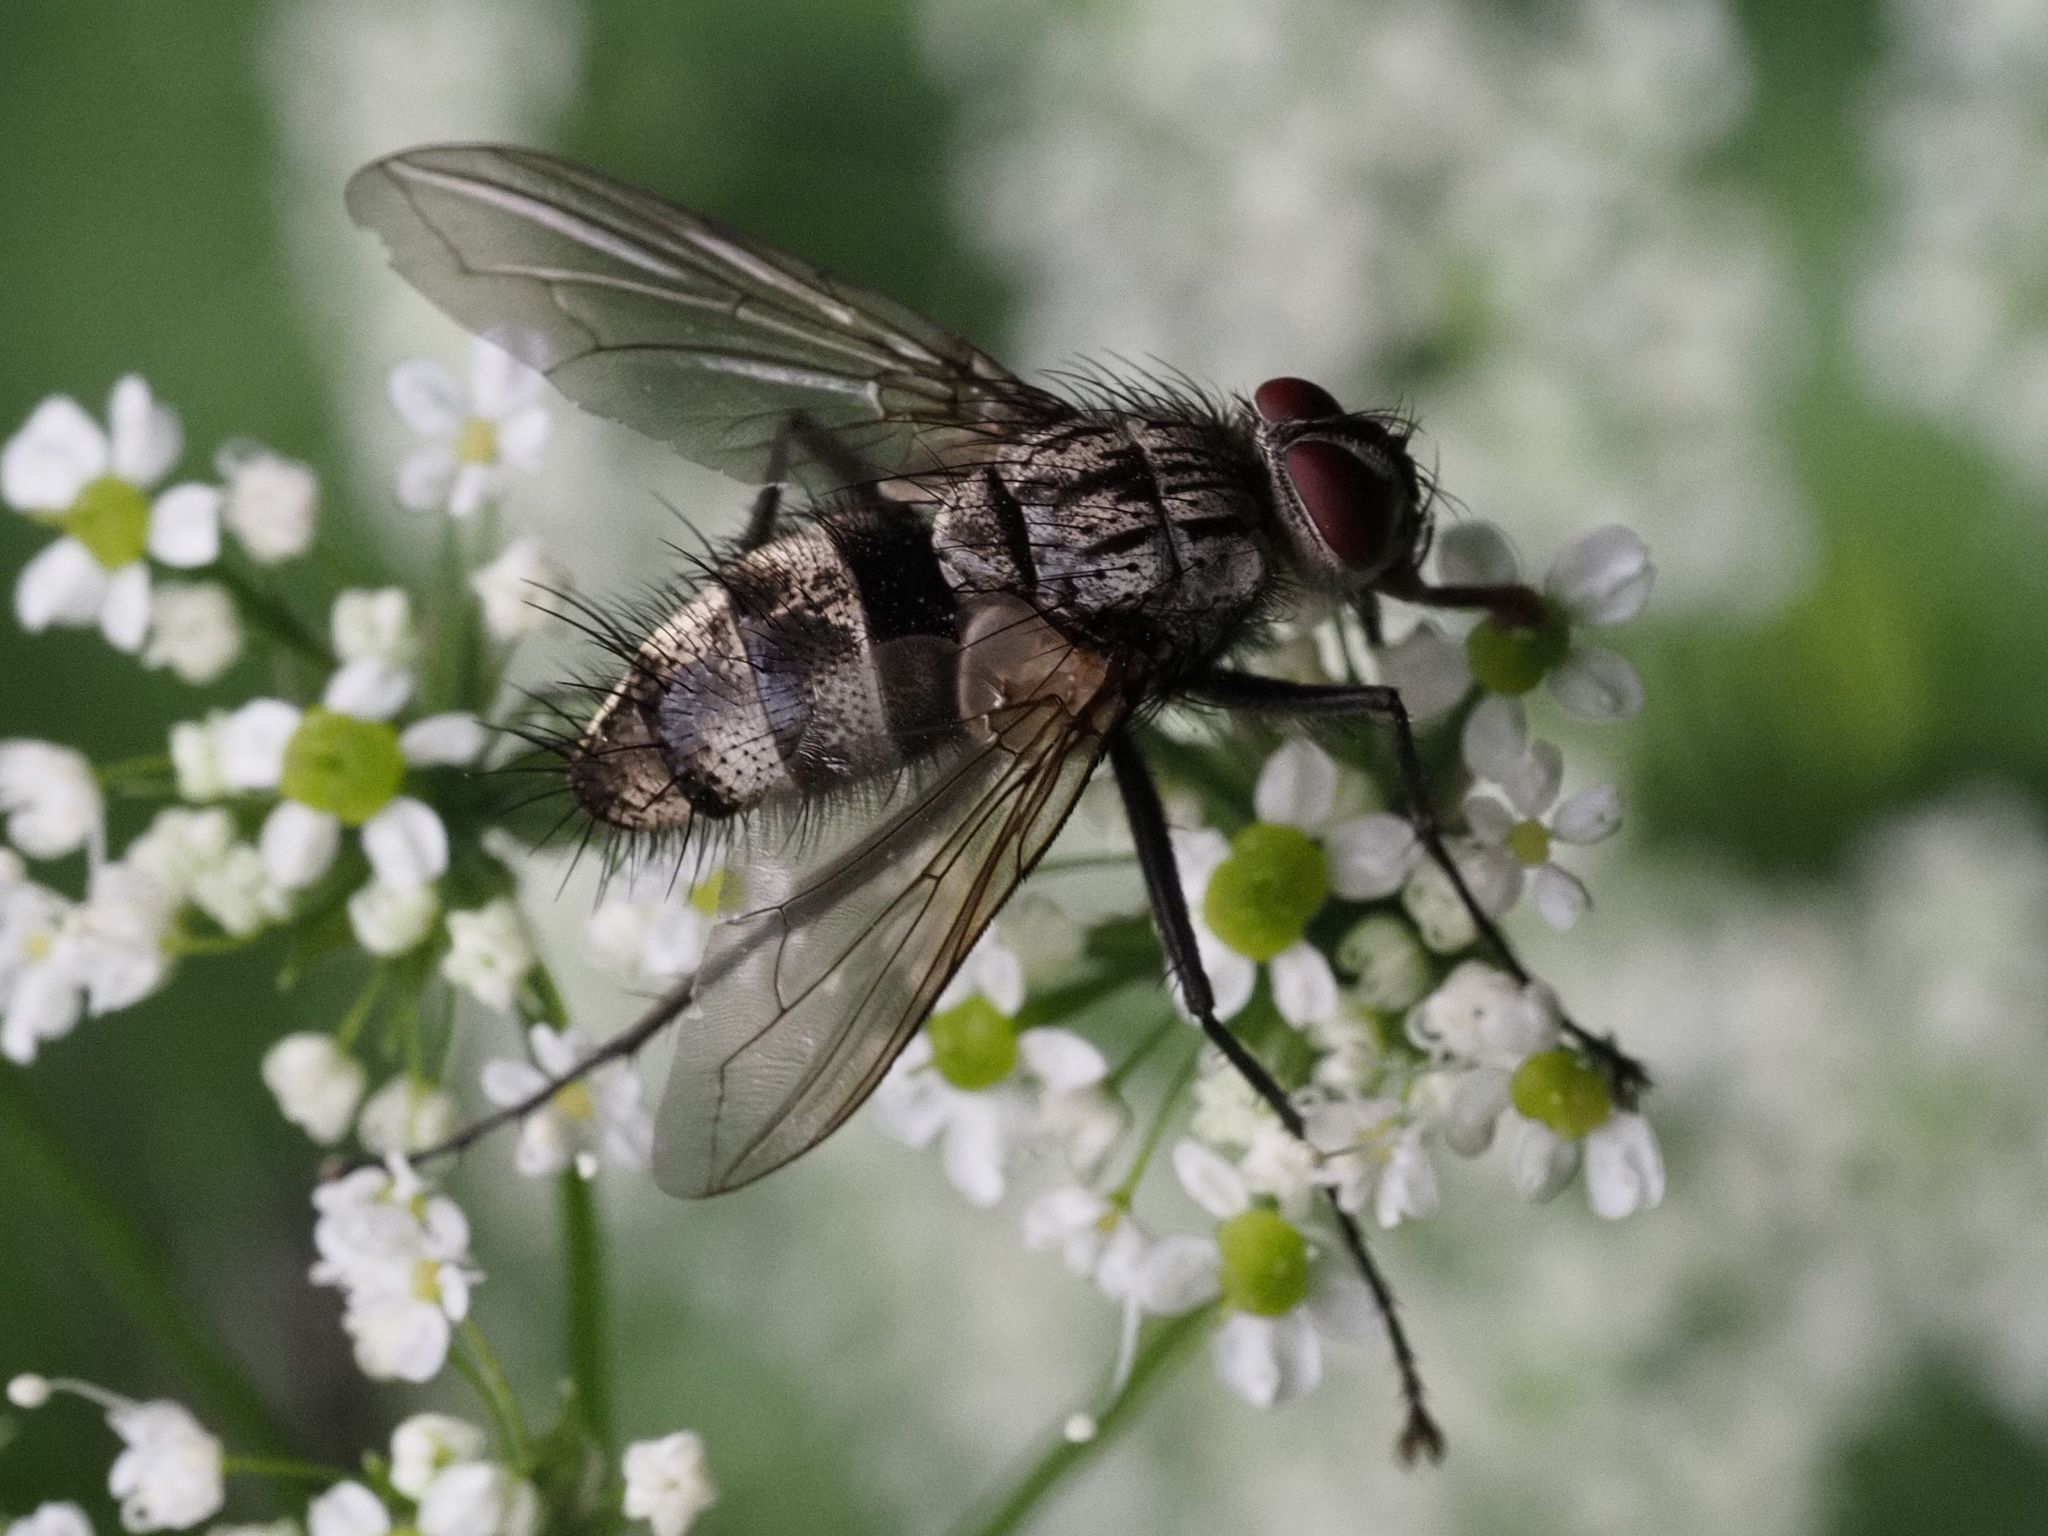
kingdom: Animalia
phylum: Arthropoda
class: Insecta
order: Diptera
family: Tachinidae
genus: Dinera
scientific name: Dinera ferina
